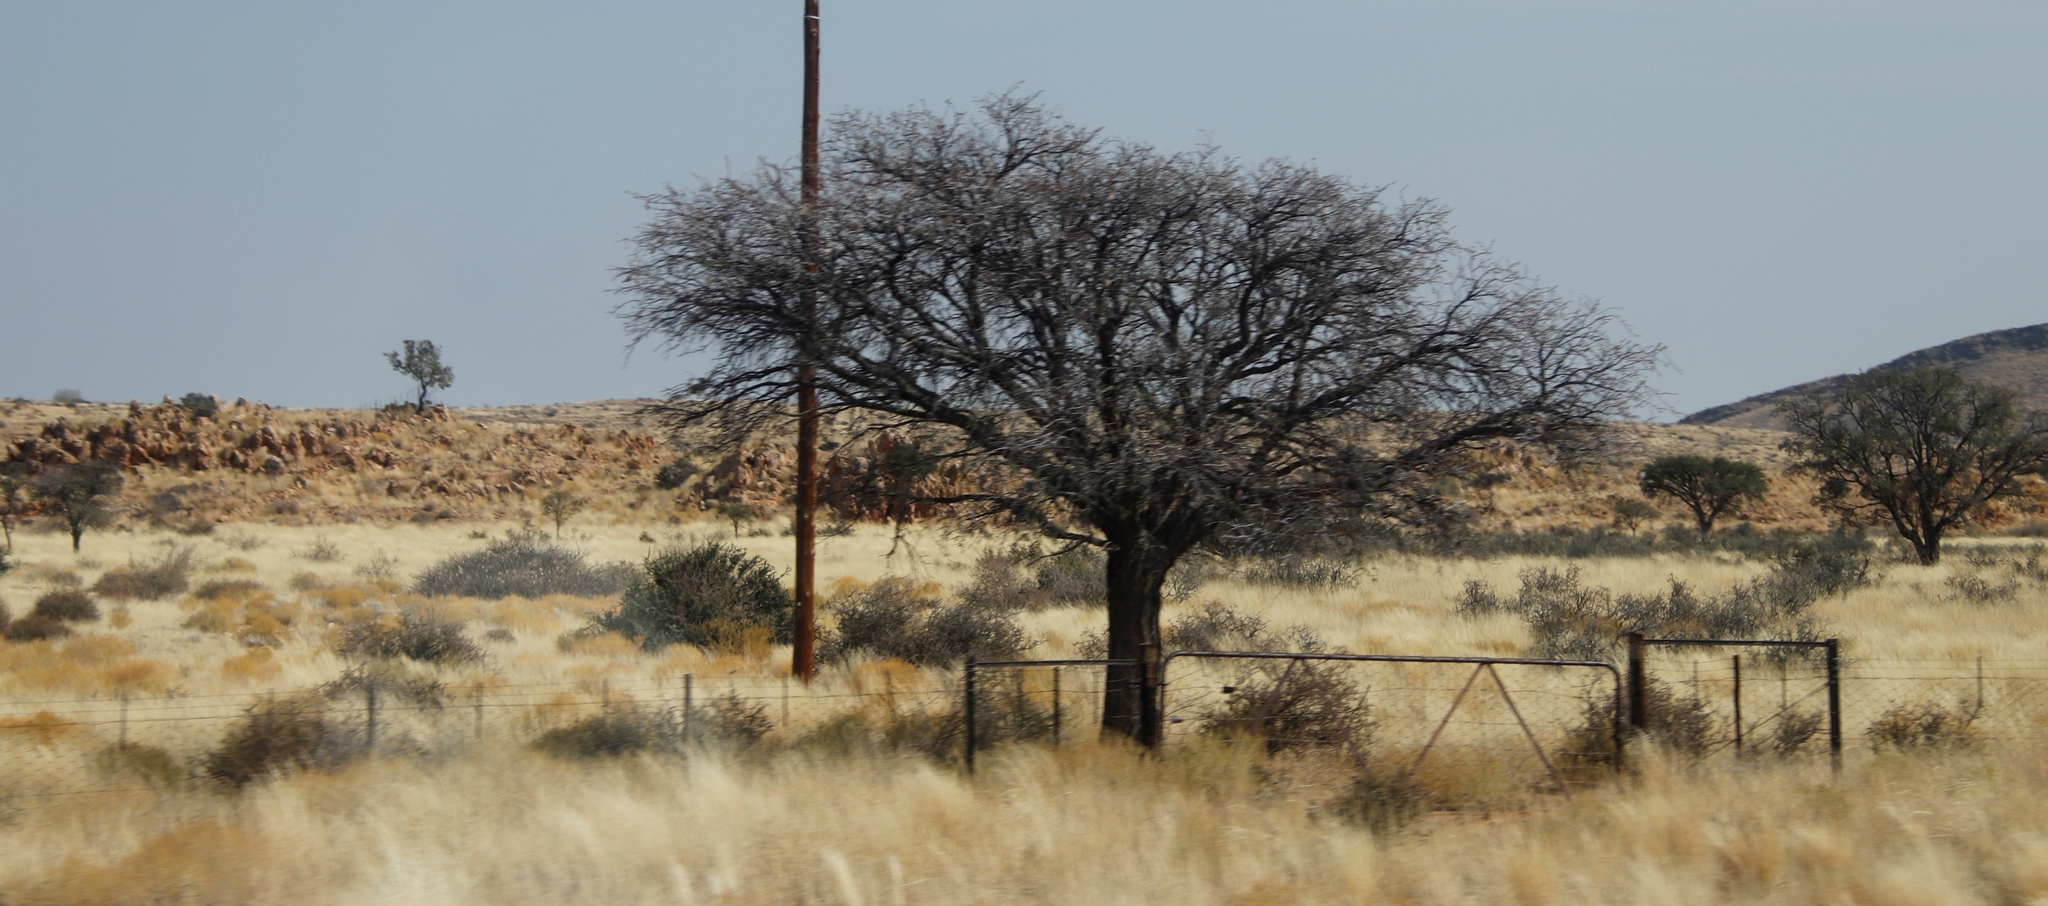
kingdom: Plantae
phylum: Tracheophyta
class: Magnoliopsida
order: Fabales
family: Fabaceae
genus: Vachellia
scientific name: Vachellia erioloba
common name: Camel thorn
